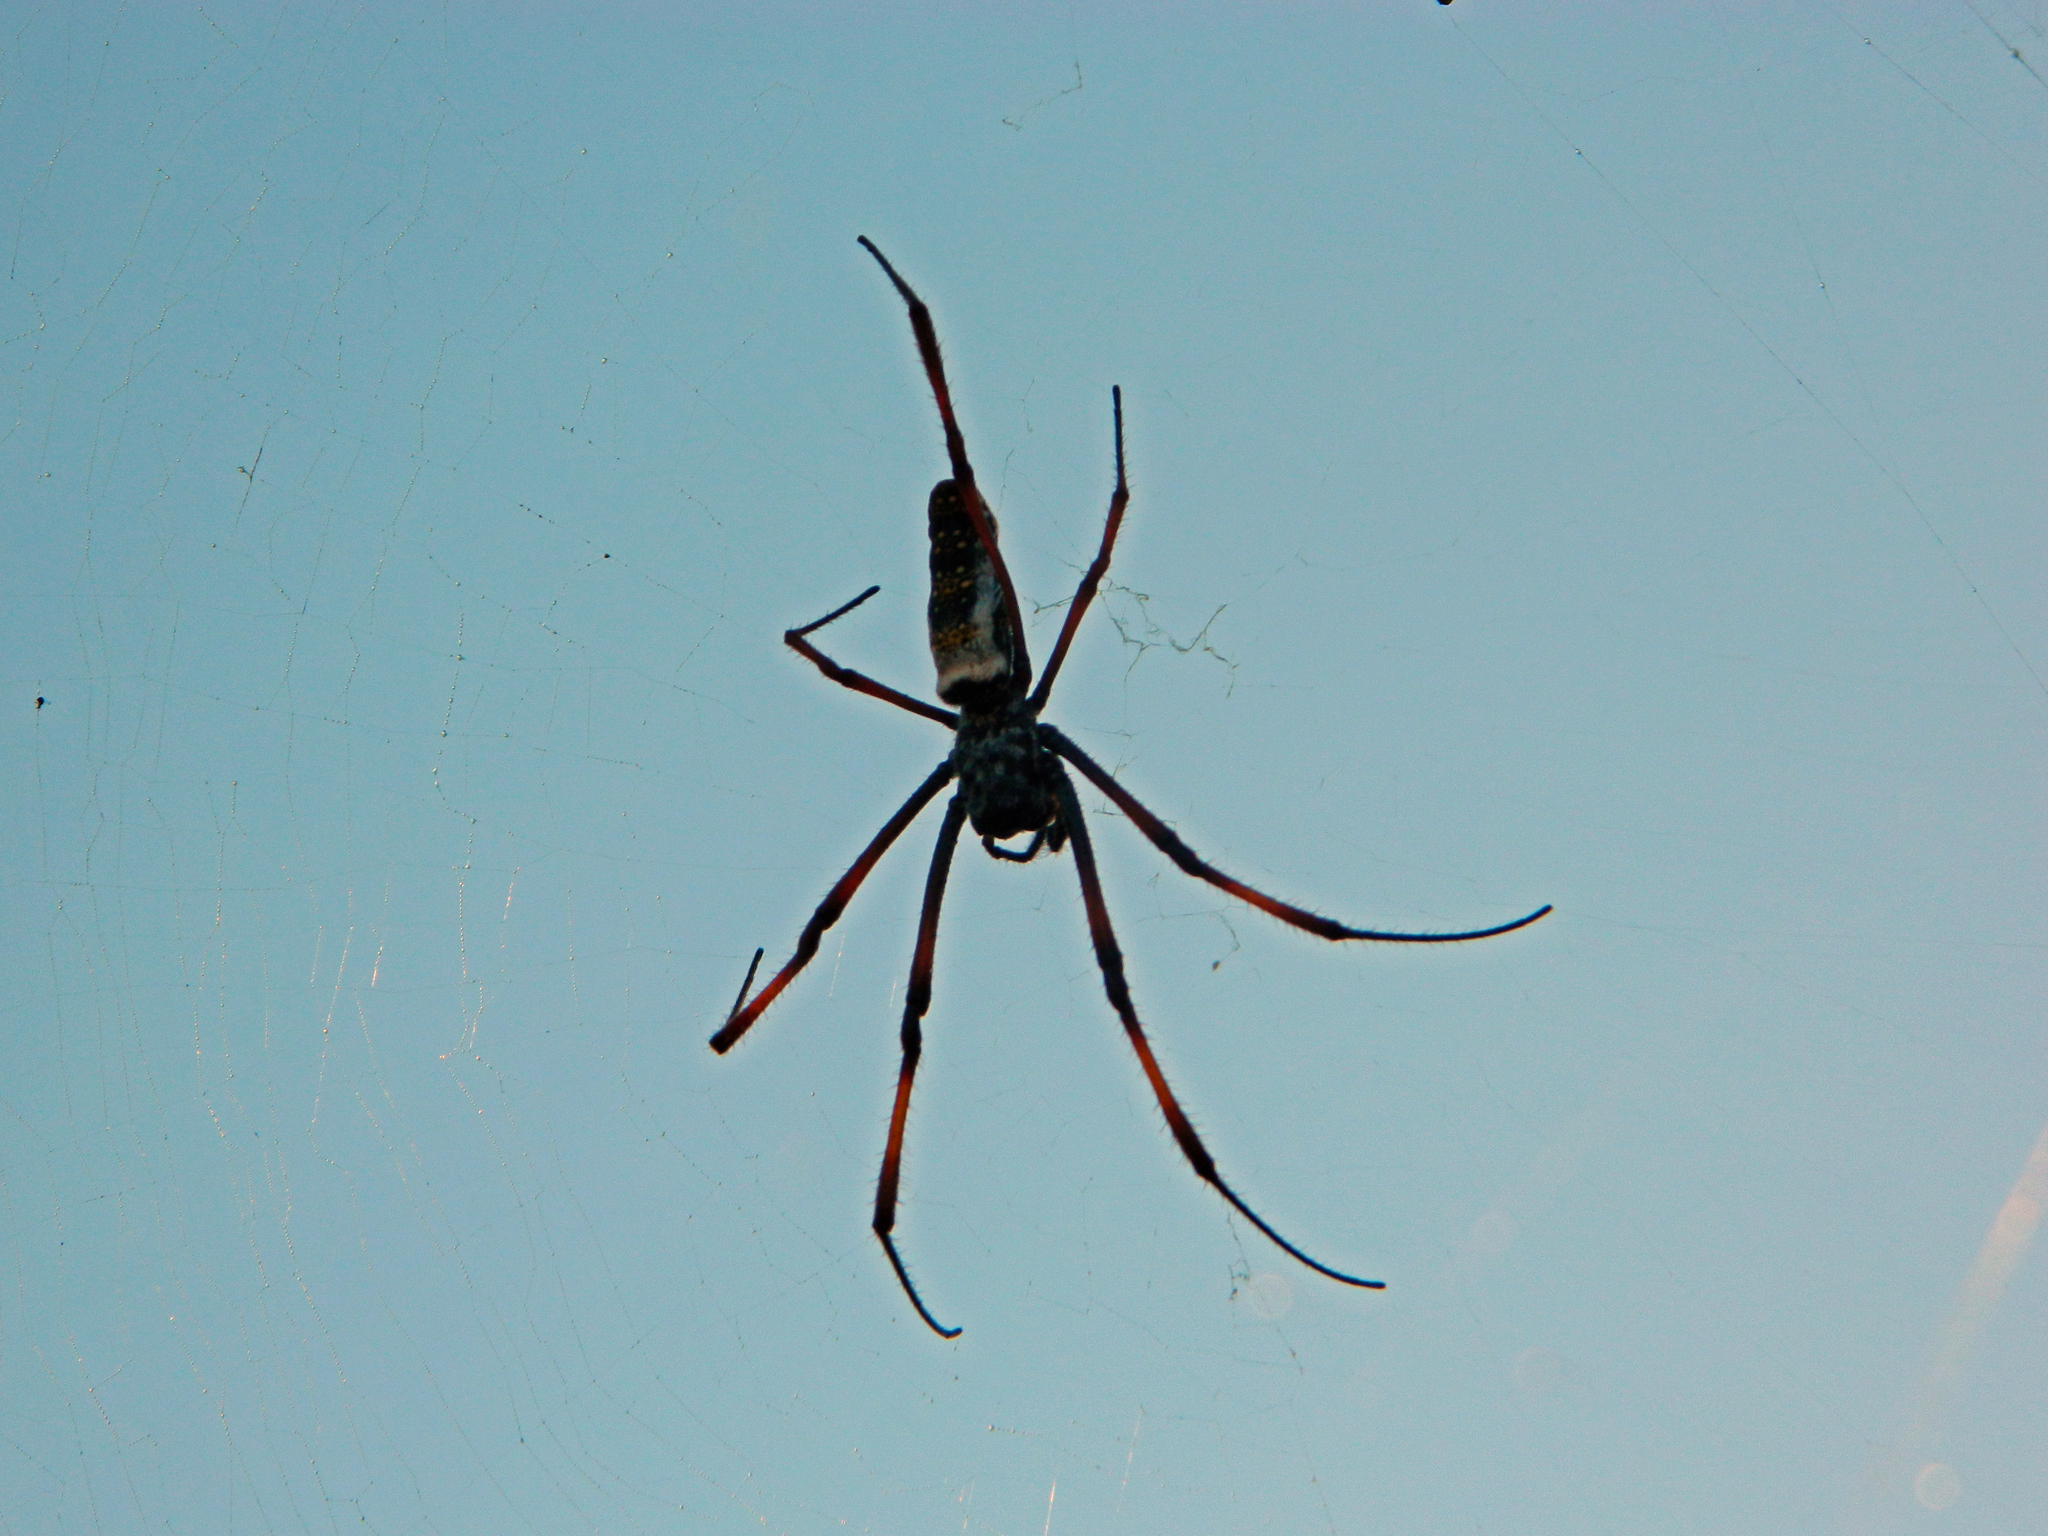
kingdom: Animalia
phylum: Arthropoda
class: Arachnida
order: Araneae
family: Araneidae
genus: Trichonephila
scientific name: Trichonephila inaurata
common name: Red-legged golden orb weaver
